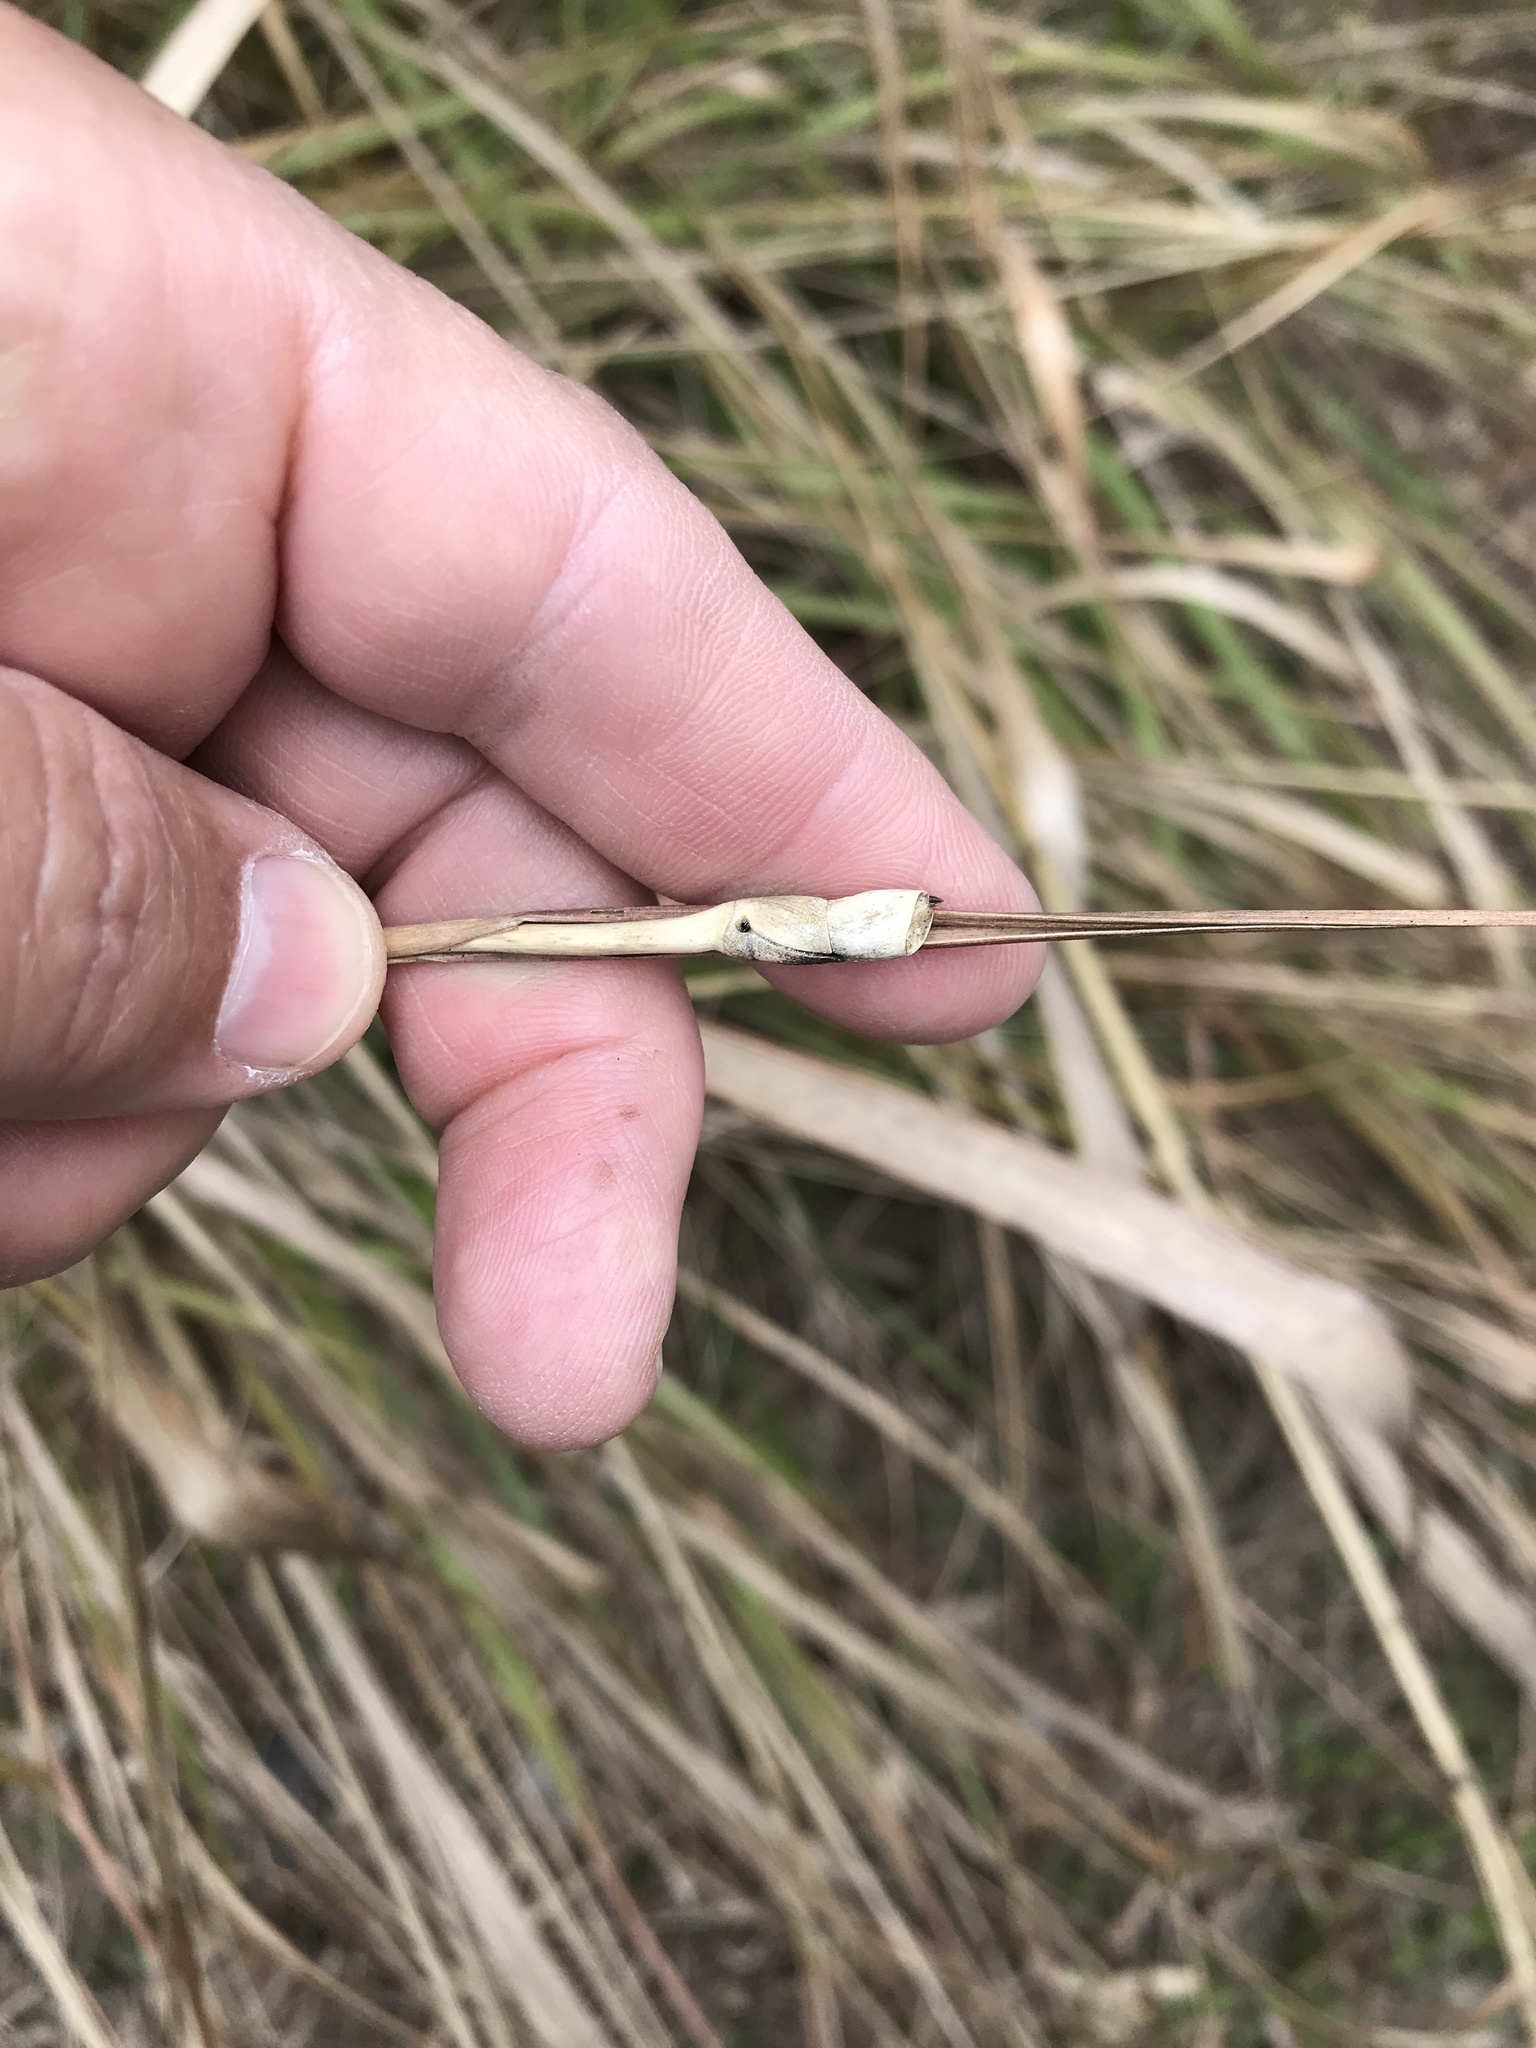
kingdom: Plantae
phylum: Tracheophyta
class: Liliopsida
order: Poales
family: Poaceae
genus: Tripsacum
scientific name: Tripsacum dactyloides
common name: Buffalo-grass
